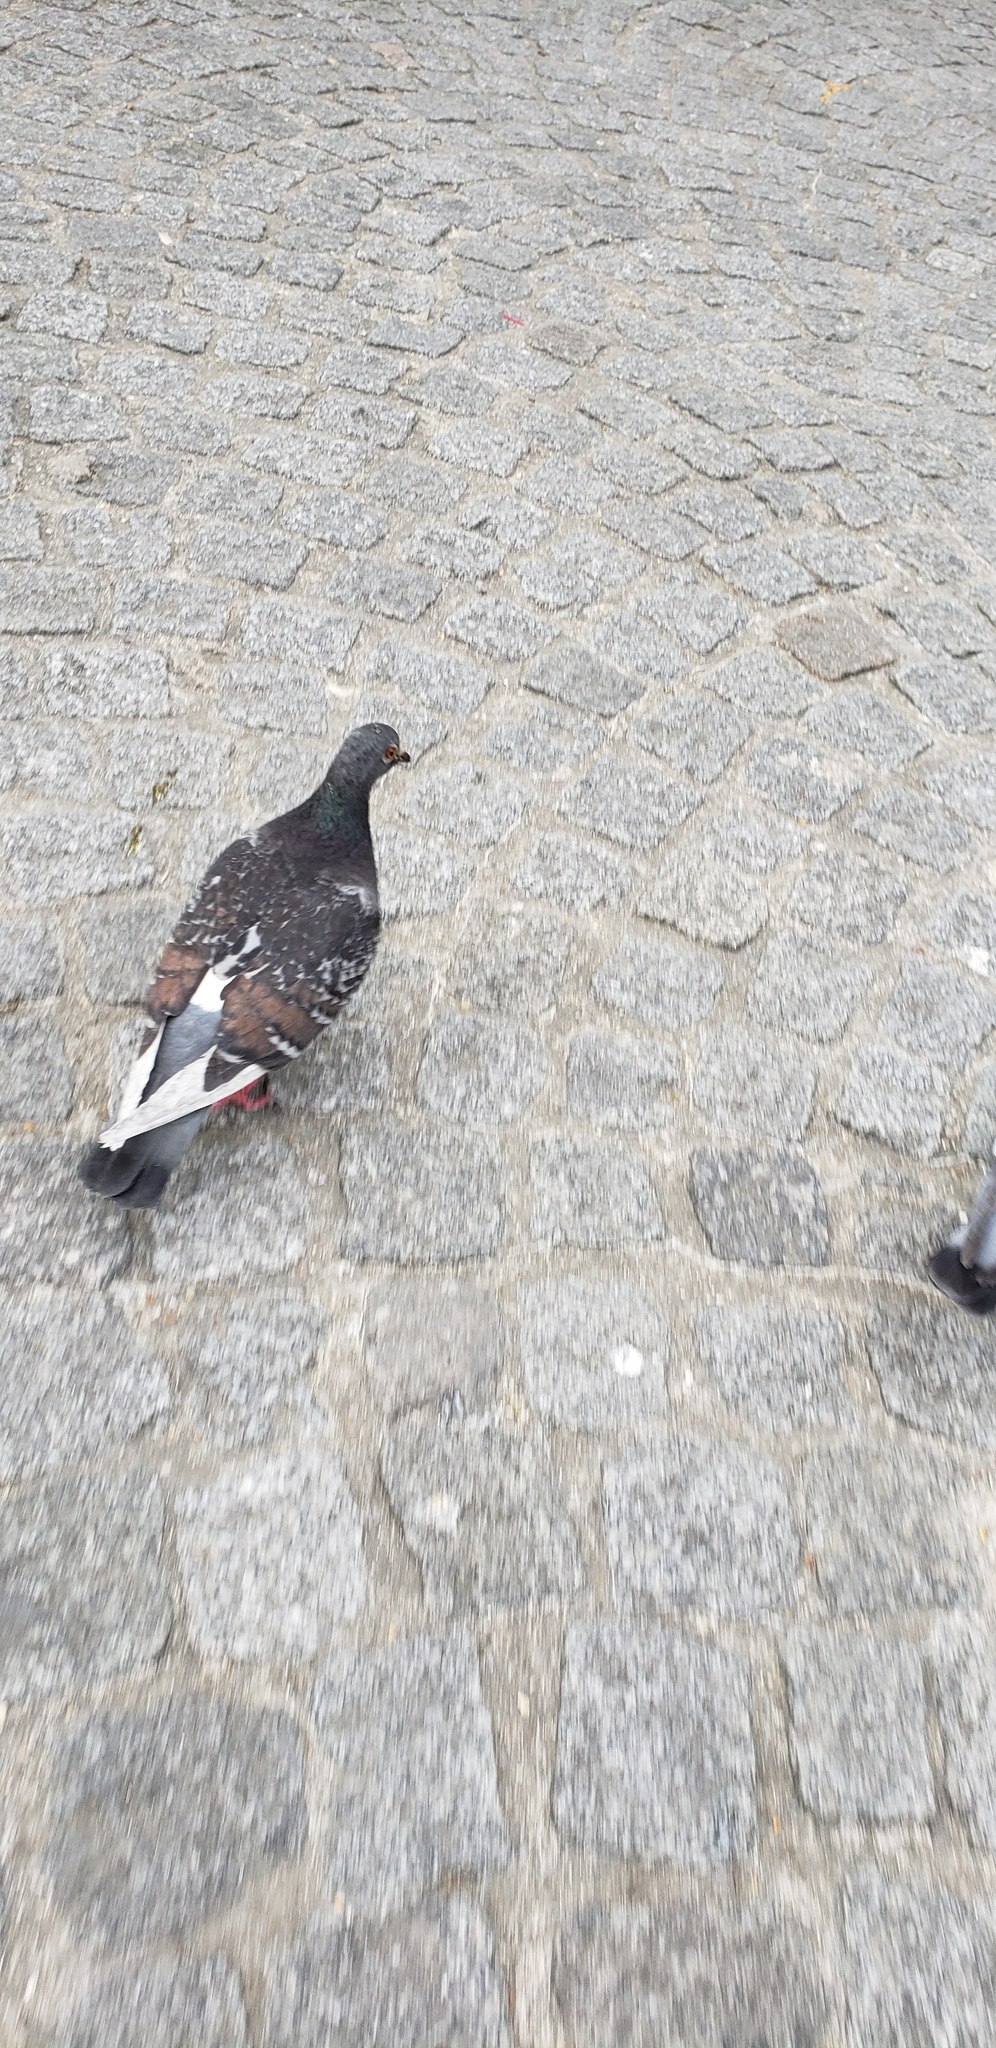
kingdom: Animalia
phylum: Chordata
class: Aves
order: Columbiformes
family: Columbidae
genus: Columba
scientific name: Columba livia
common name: Rock pigeon
